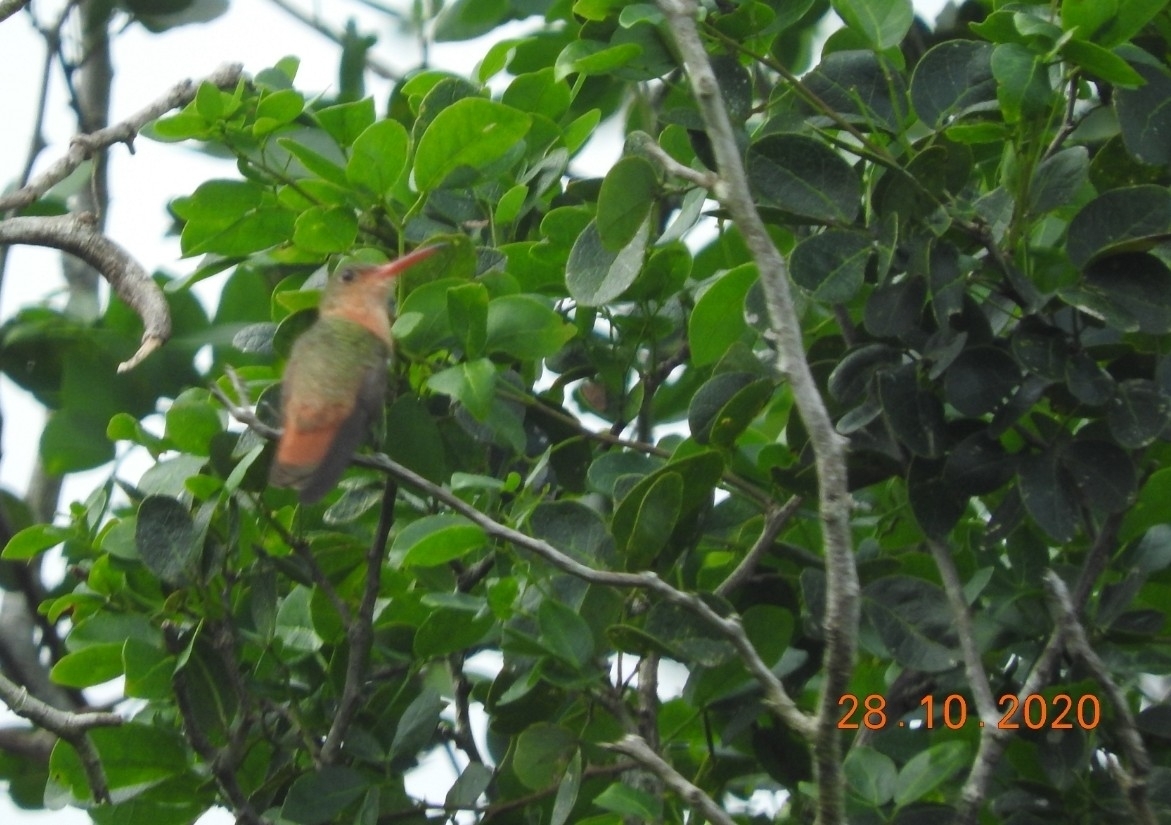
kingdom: Animalia
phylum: Chordata
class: Aves
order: Apodiformes
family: Trochilidae
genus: Amazilia
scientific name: Amazilia rutila
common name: Cinnamon hummingbird
